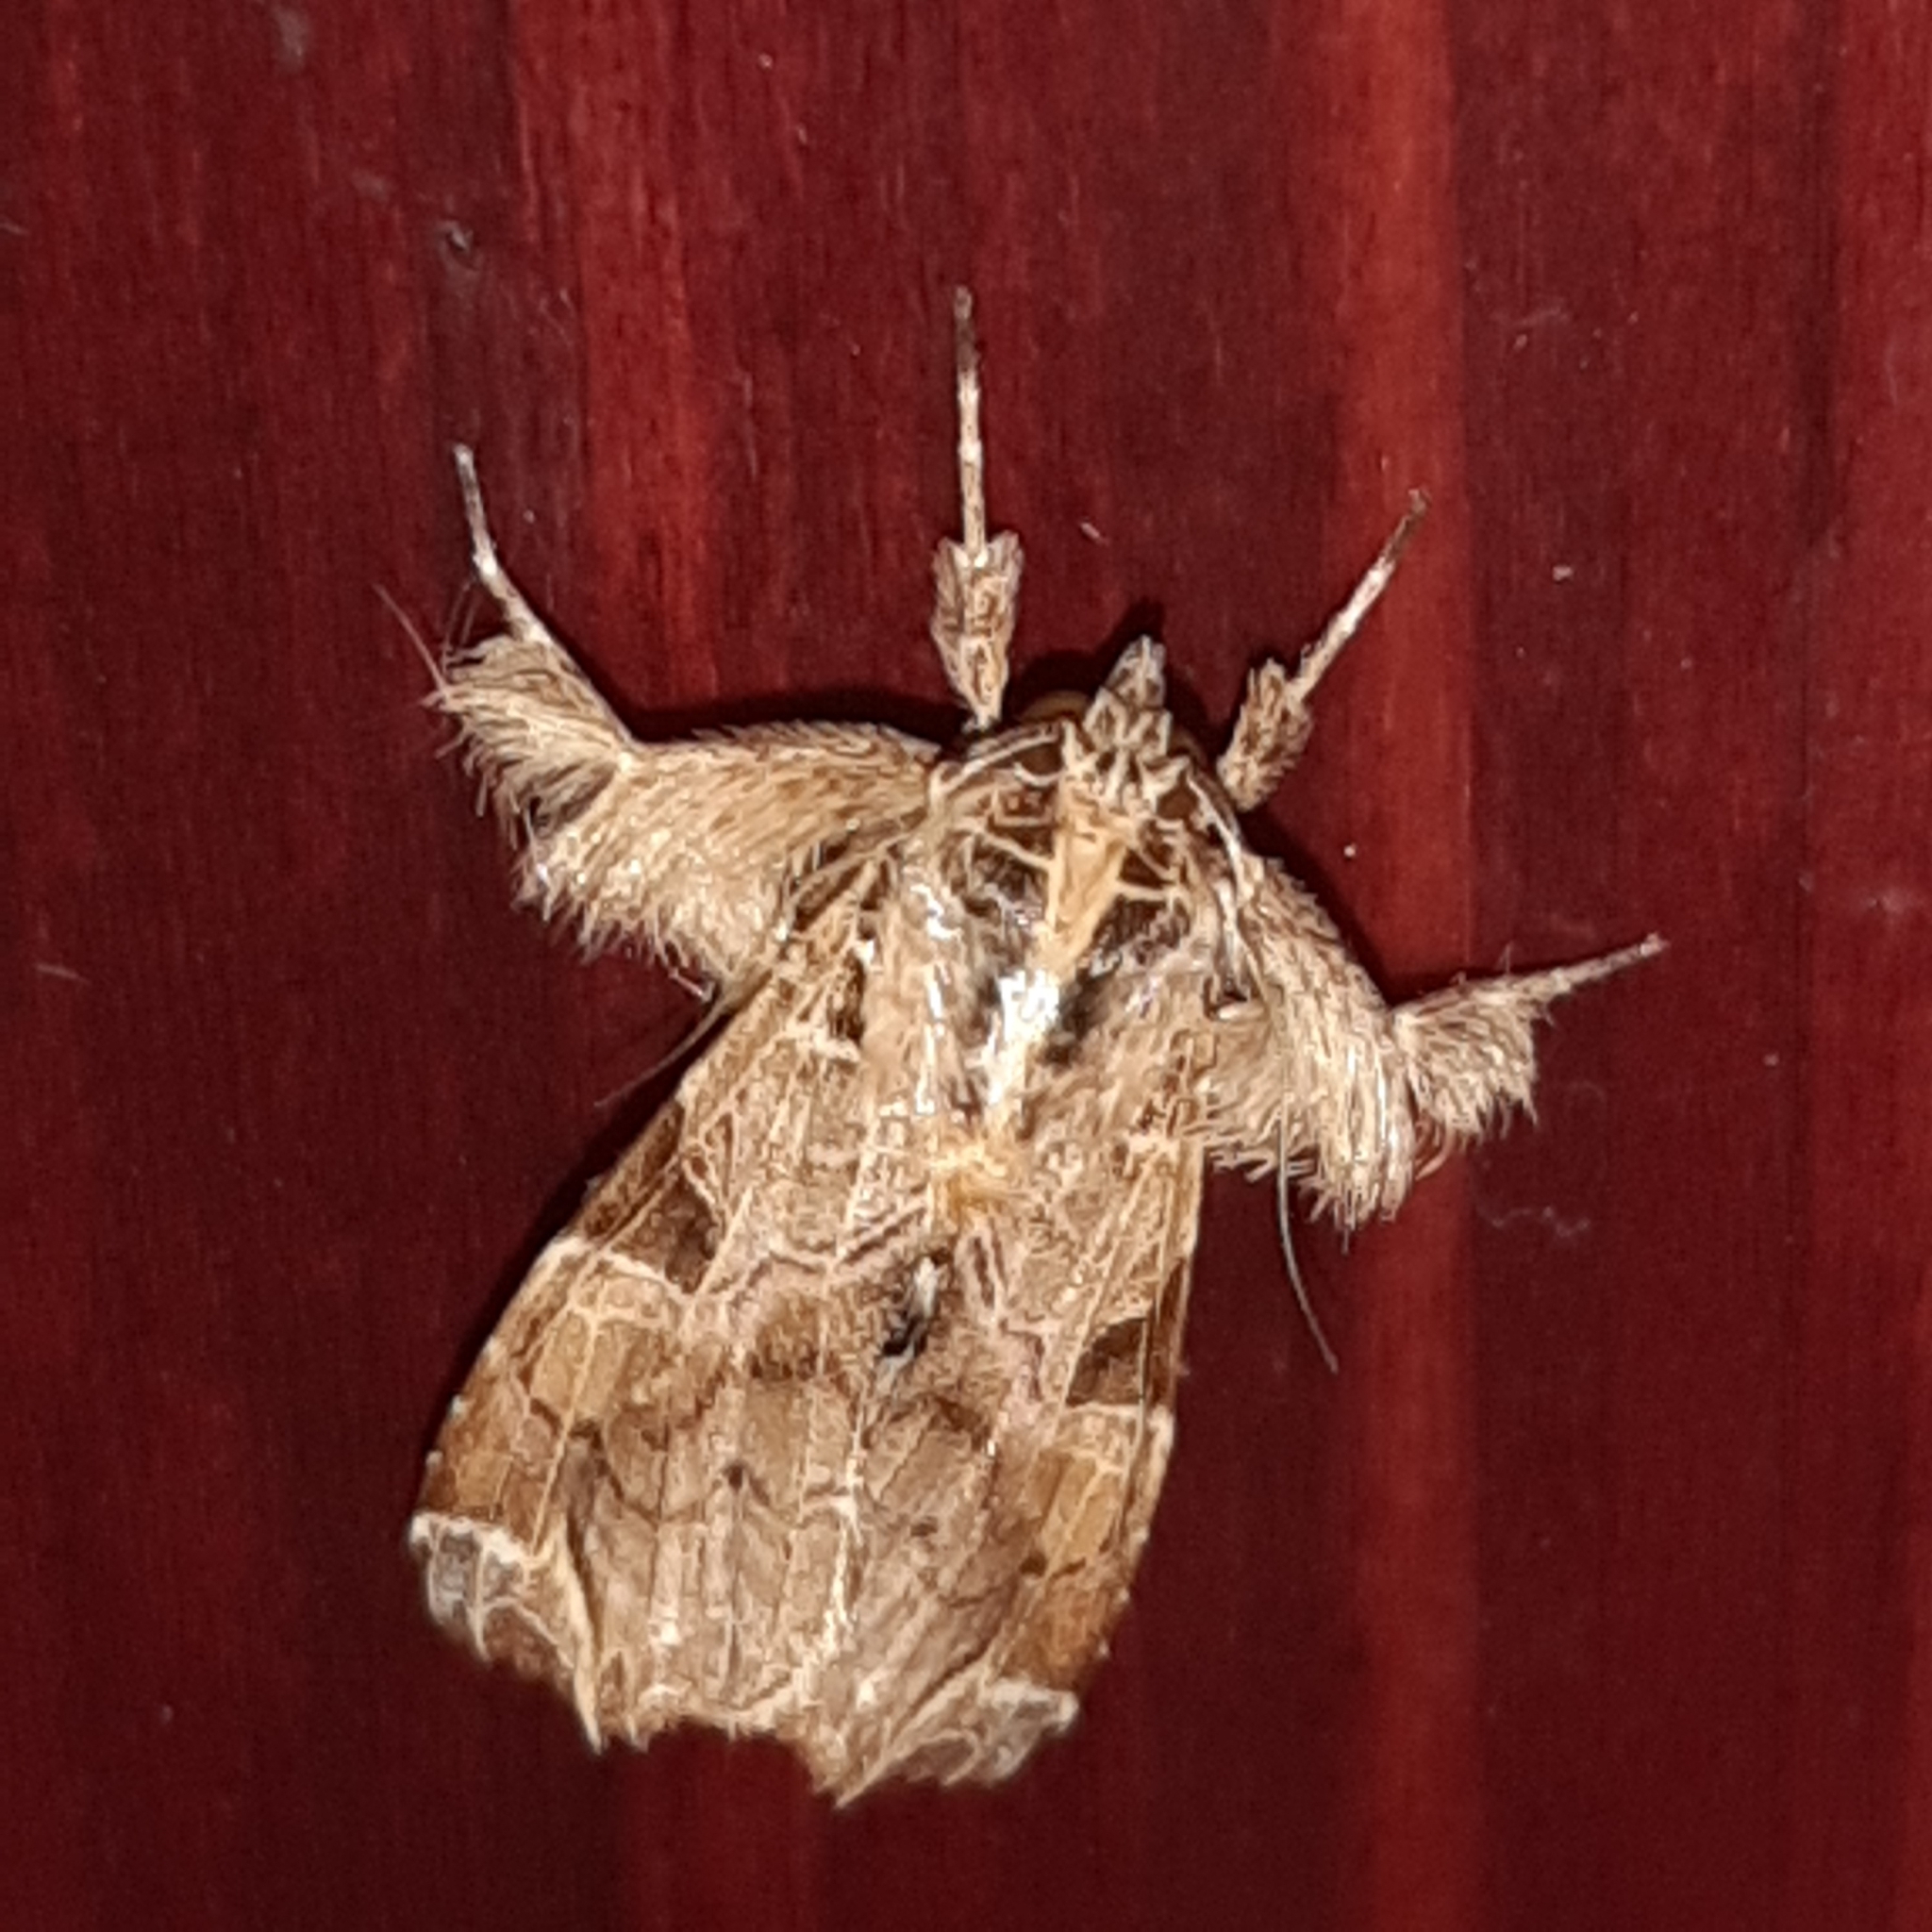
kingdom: Animalia
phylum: Arthropoda
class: Insecta
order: Lepidoptera
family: Noctuidae
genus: Callopistria
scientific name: Callopistria floridensis
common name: Florida fern moth
